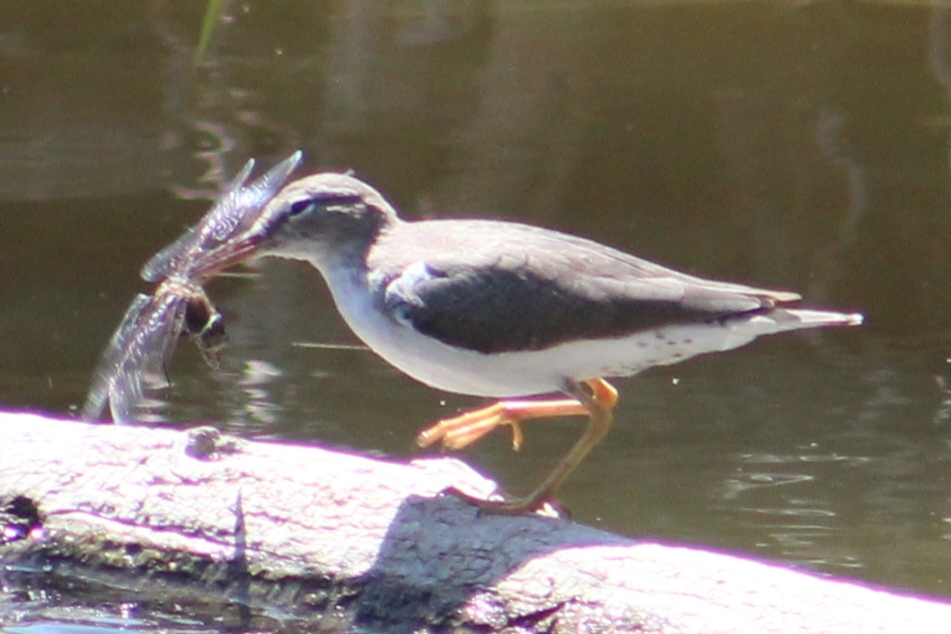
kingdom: Animalia
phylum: Chordata
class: Aves
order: Charadriiformes
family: Scolopacidae
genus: Actitis
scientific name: Actitis macularius
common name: Spotted sandpiper
